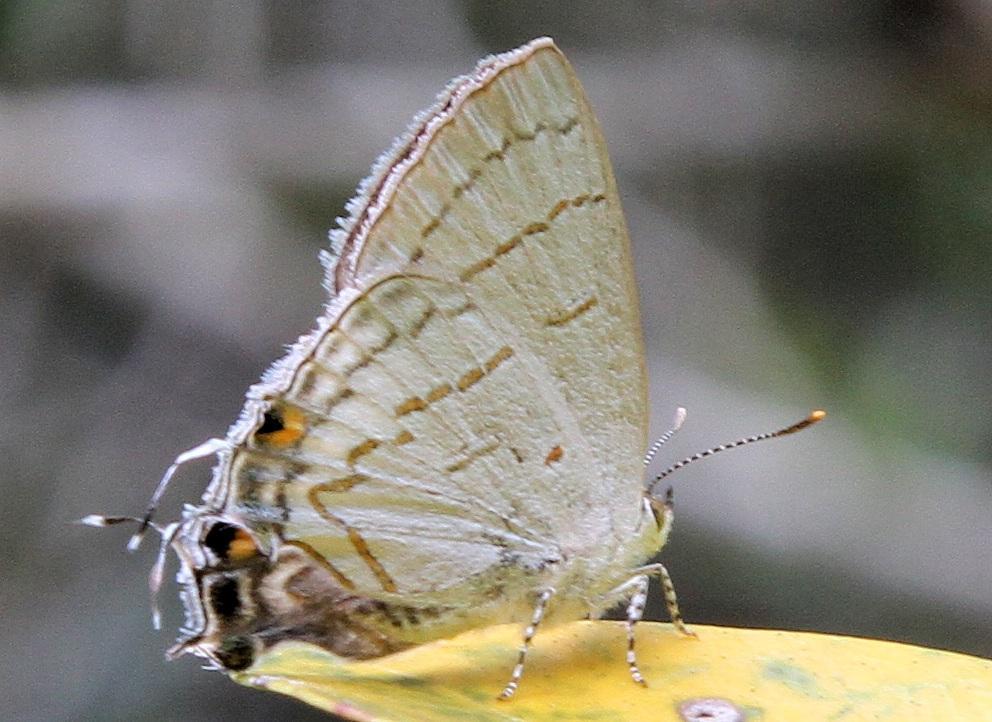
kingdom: Animalia
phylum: Arthropoda
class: Insecta
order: Lepidoptera
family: Lycaenidae
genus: Hypolycaena
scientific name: Hypolycaena philippus
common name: Common hairstreak
